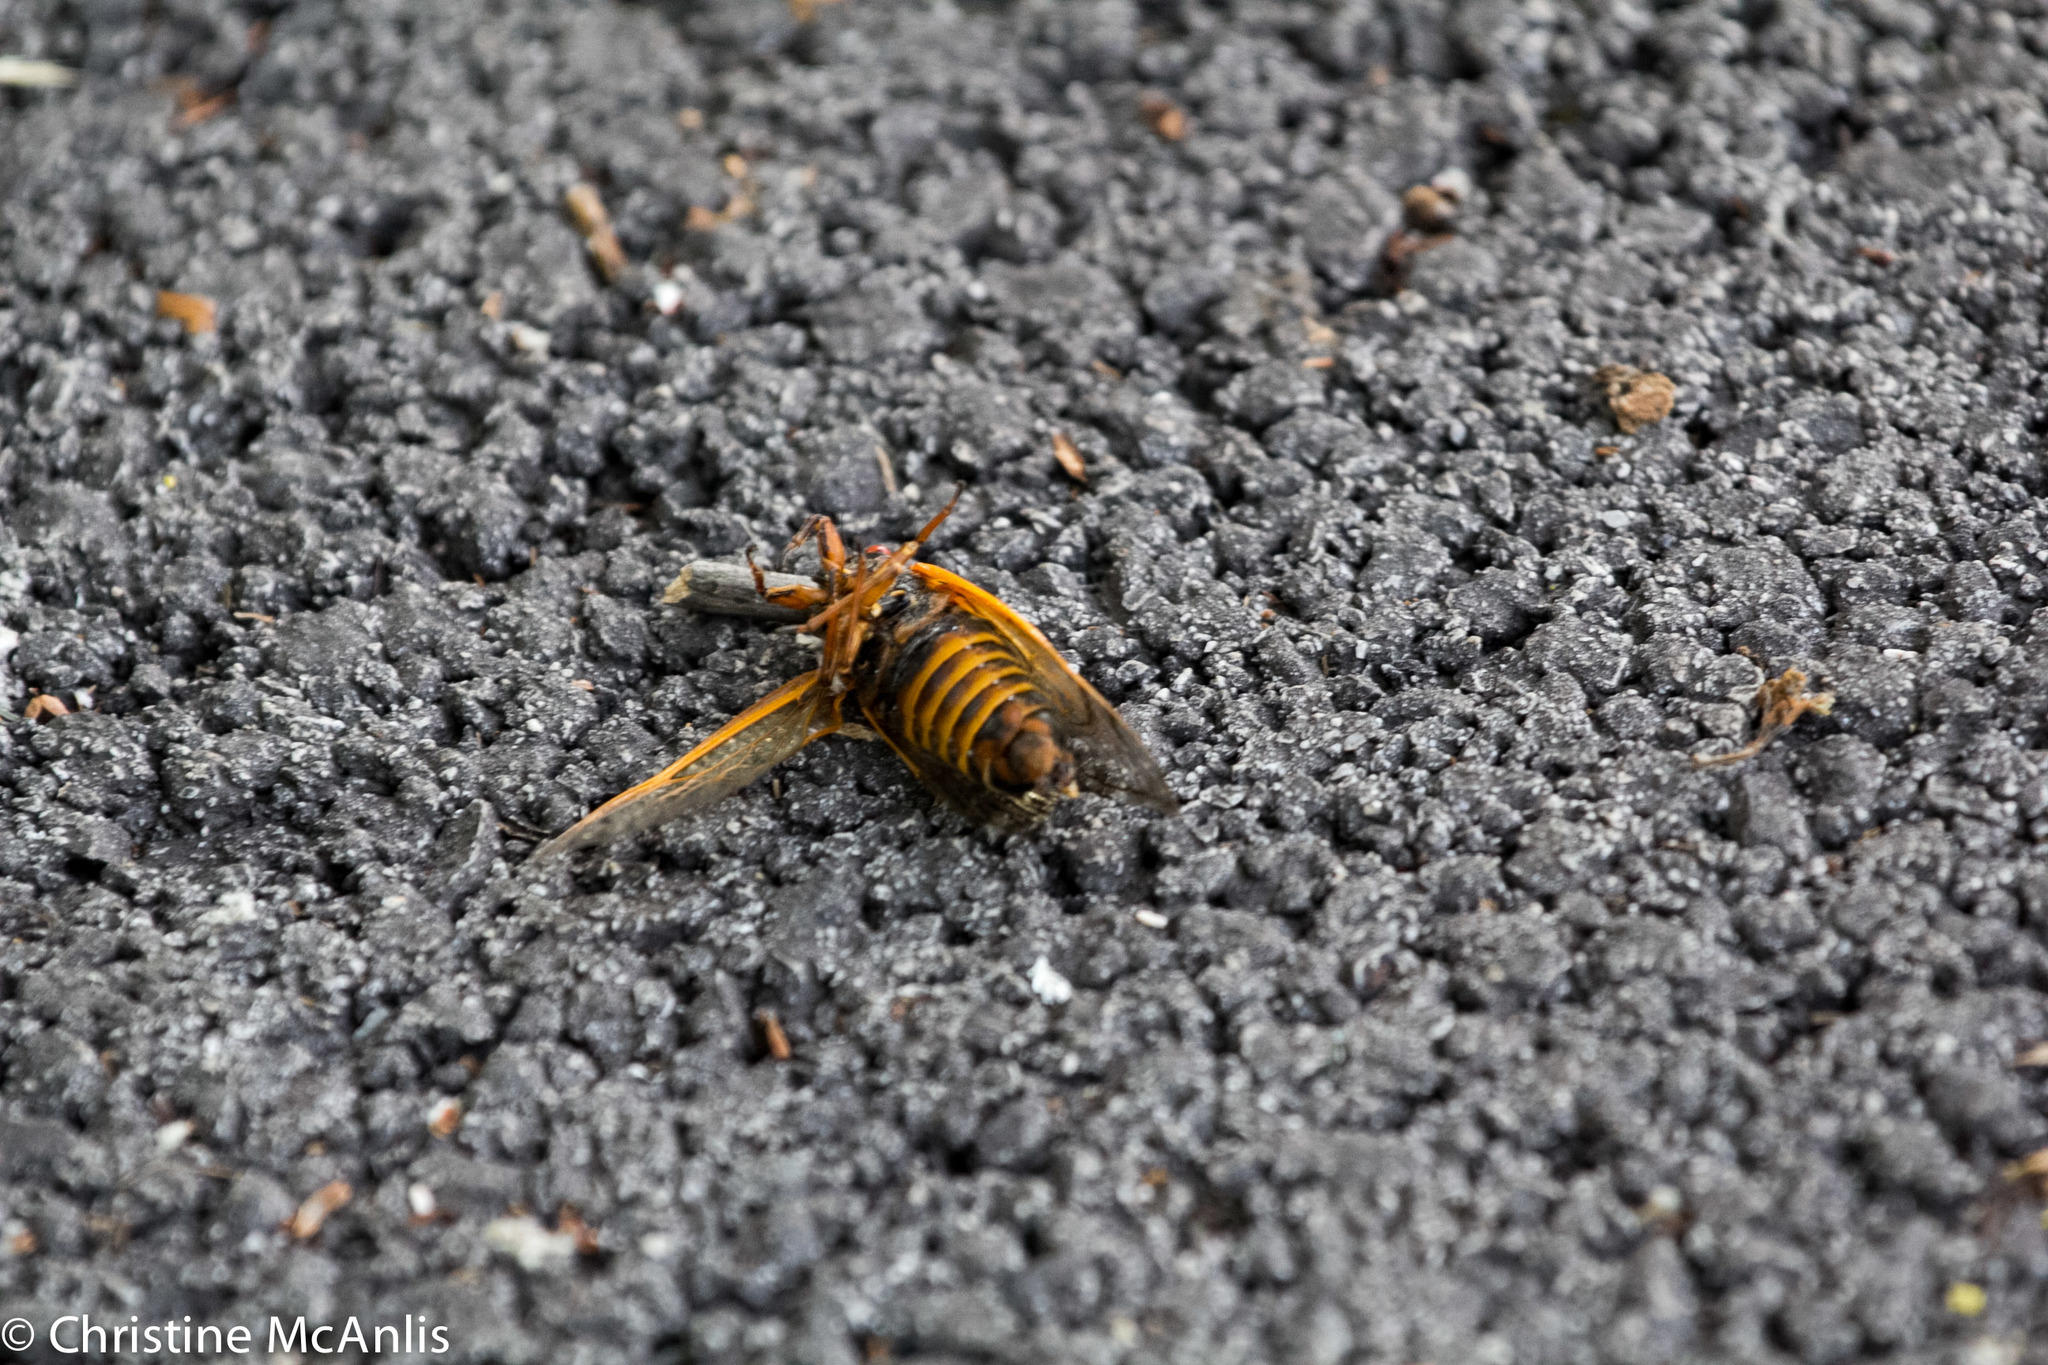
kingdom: Animalia
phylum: Arthropoda
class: Insecta
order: Hemiptera
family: Cicadidae
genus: Magicicada
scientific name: Magicicada septendecim
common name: Periodical cicada
